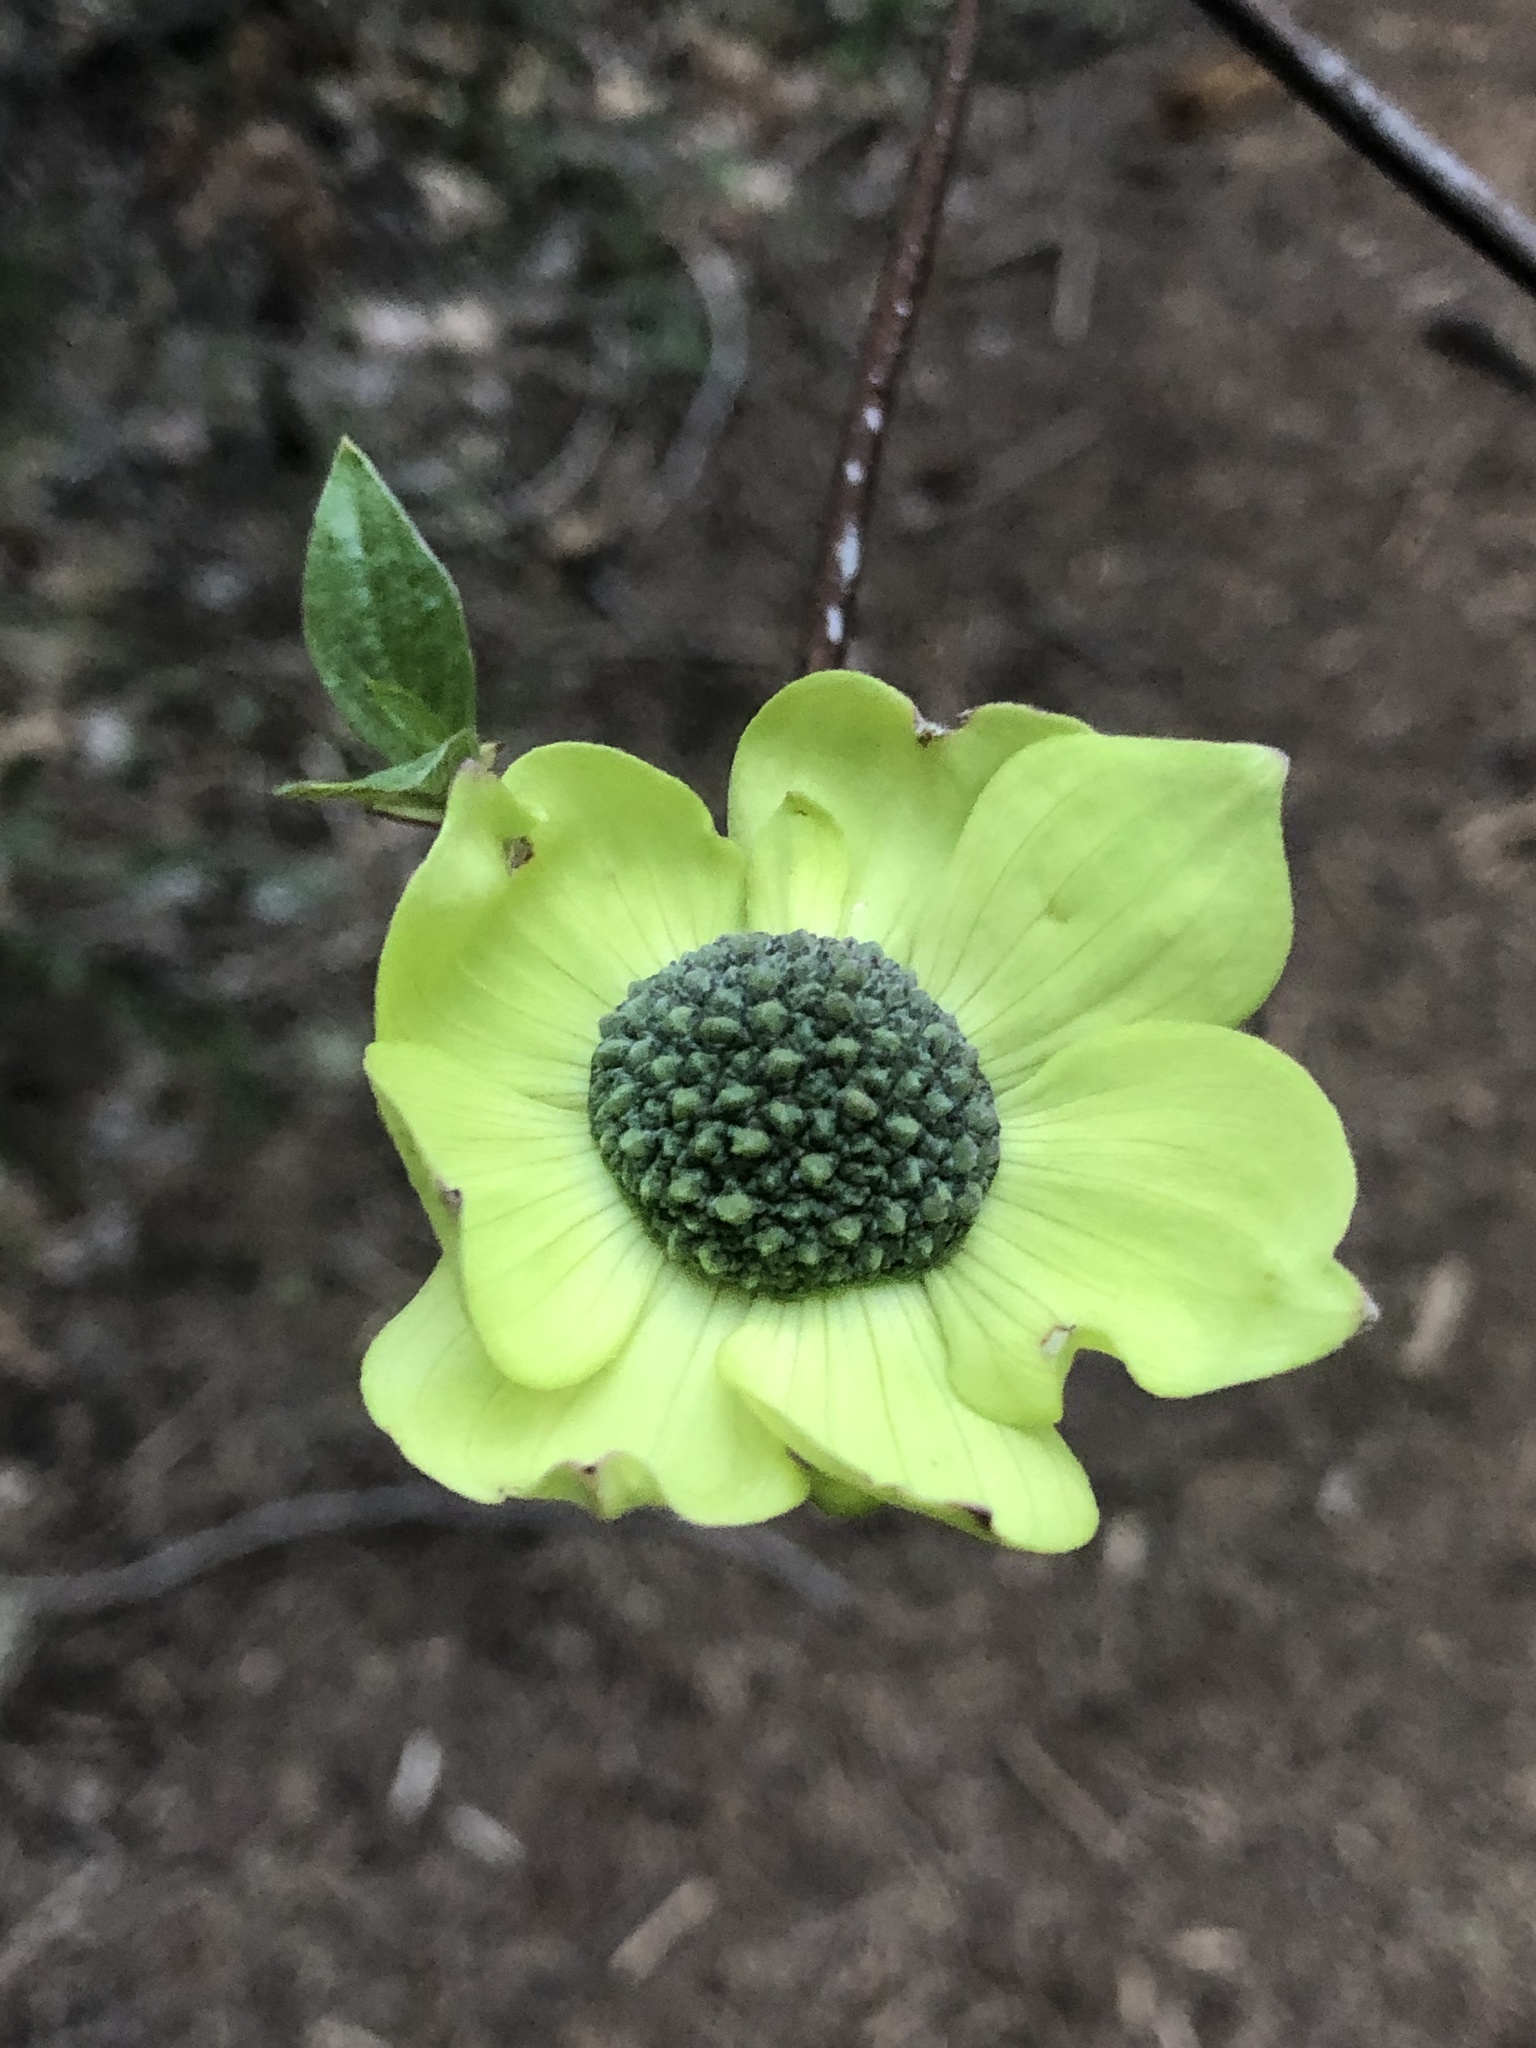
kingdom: Plantae
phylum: Tracheophyta
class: Magnoliopsida
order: Cornales
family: Cornaceae
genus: Cornus
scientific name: Cornus nuttallii
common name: Pacific dogwood
